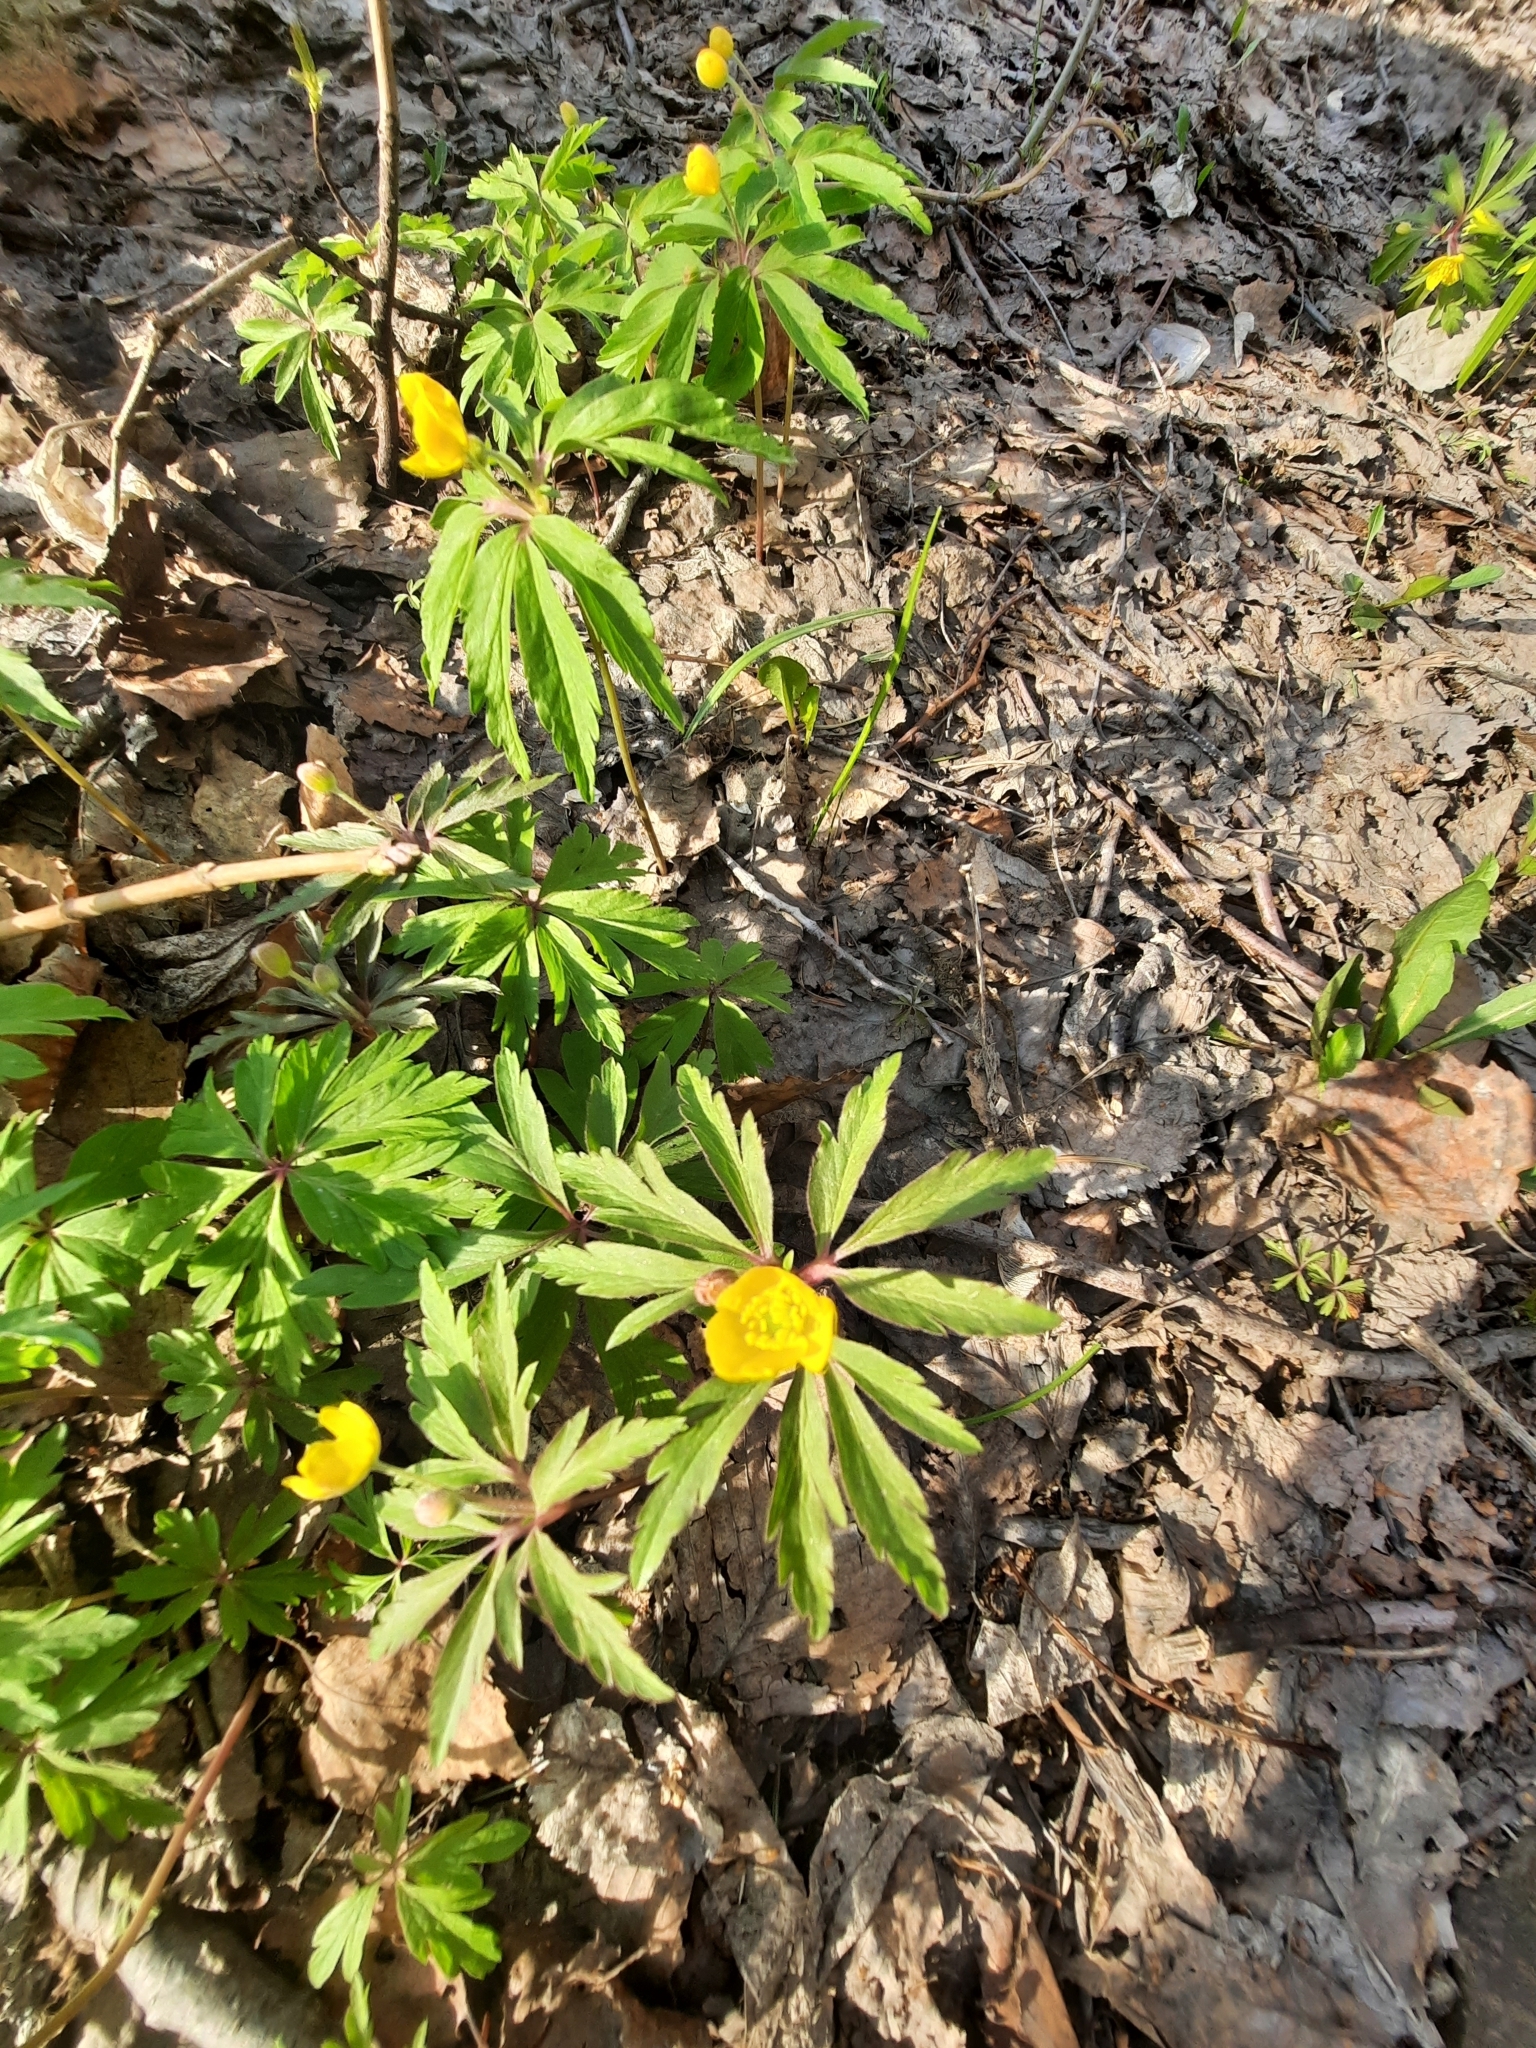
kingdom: Plantae
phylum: Tracheophyta
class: Magnoliopsida
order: Ranunculales
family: Ranunculaceae
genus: Anemone
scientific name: Anemone ranunculoides
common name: Yellow anemone
